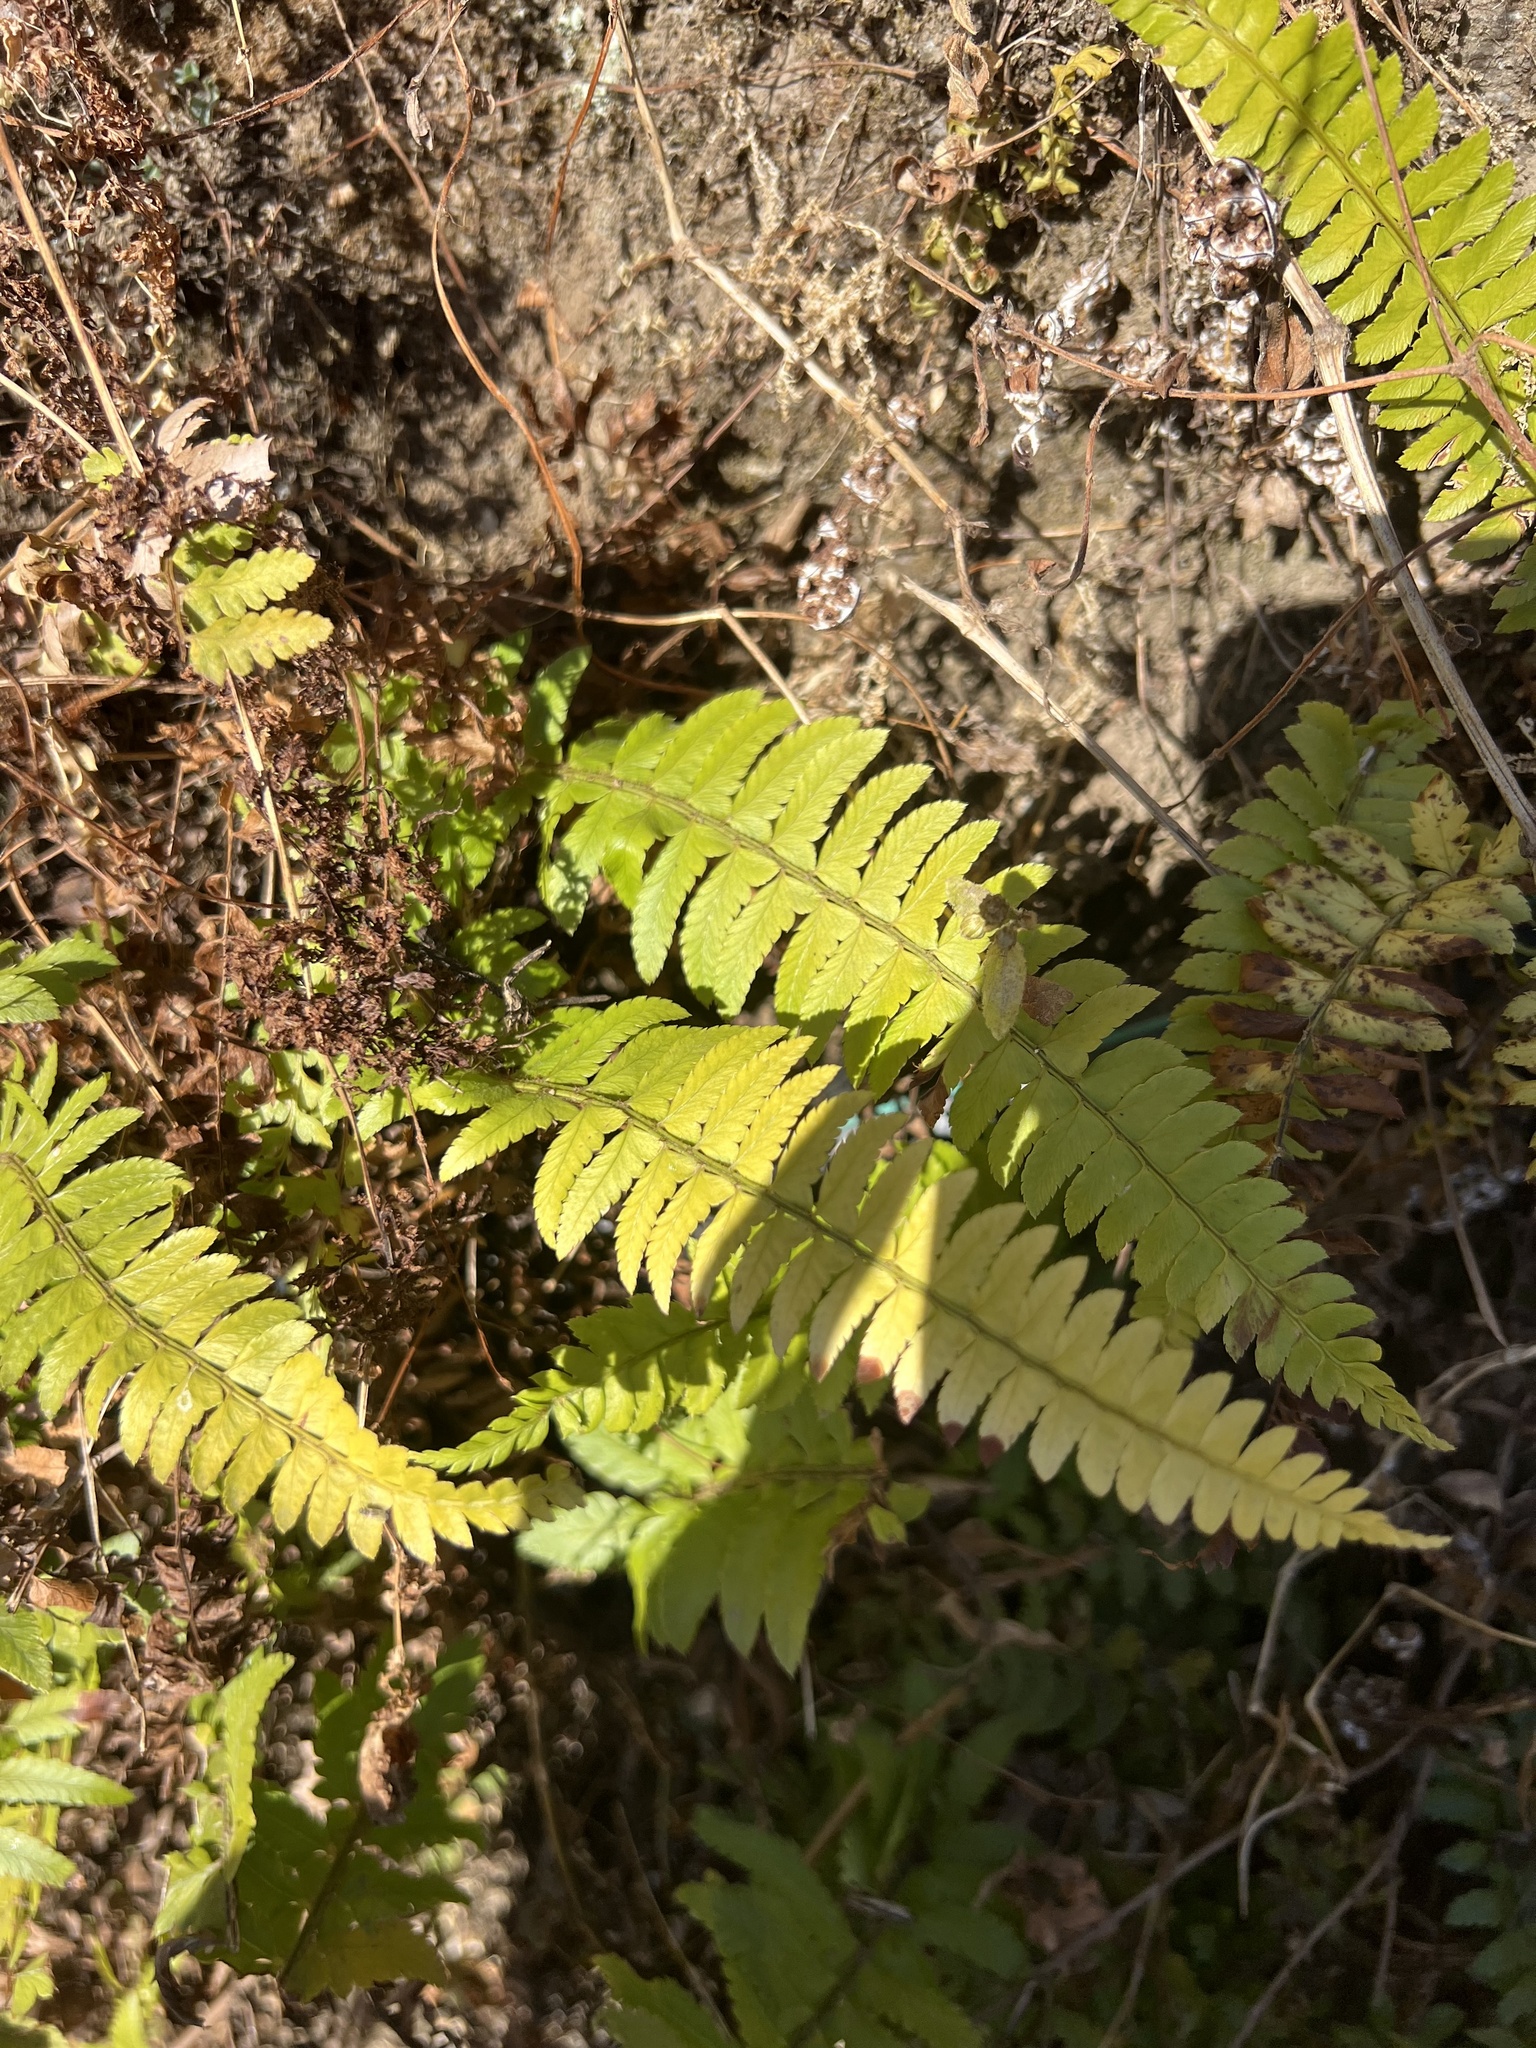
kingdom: Plantae
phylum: Tracheophyta
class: Polypodiopsida
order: Polypodiales
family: Dryopteridaceae
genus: Polystichum
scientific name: Polystichum lentum
